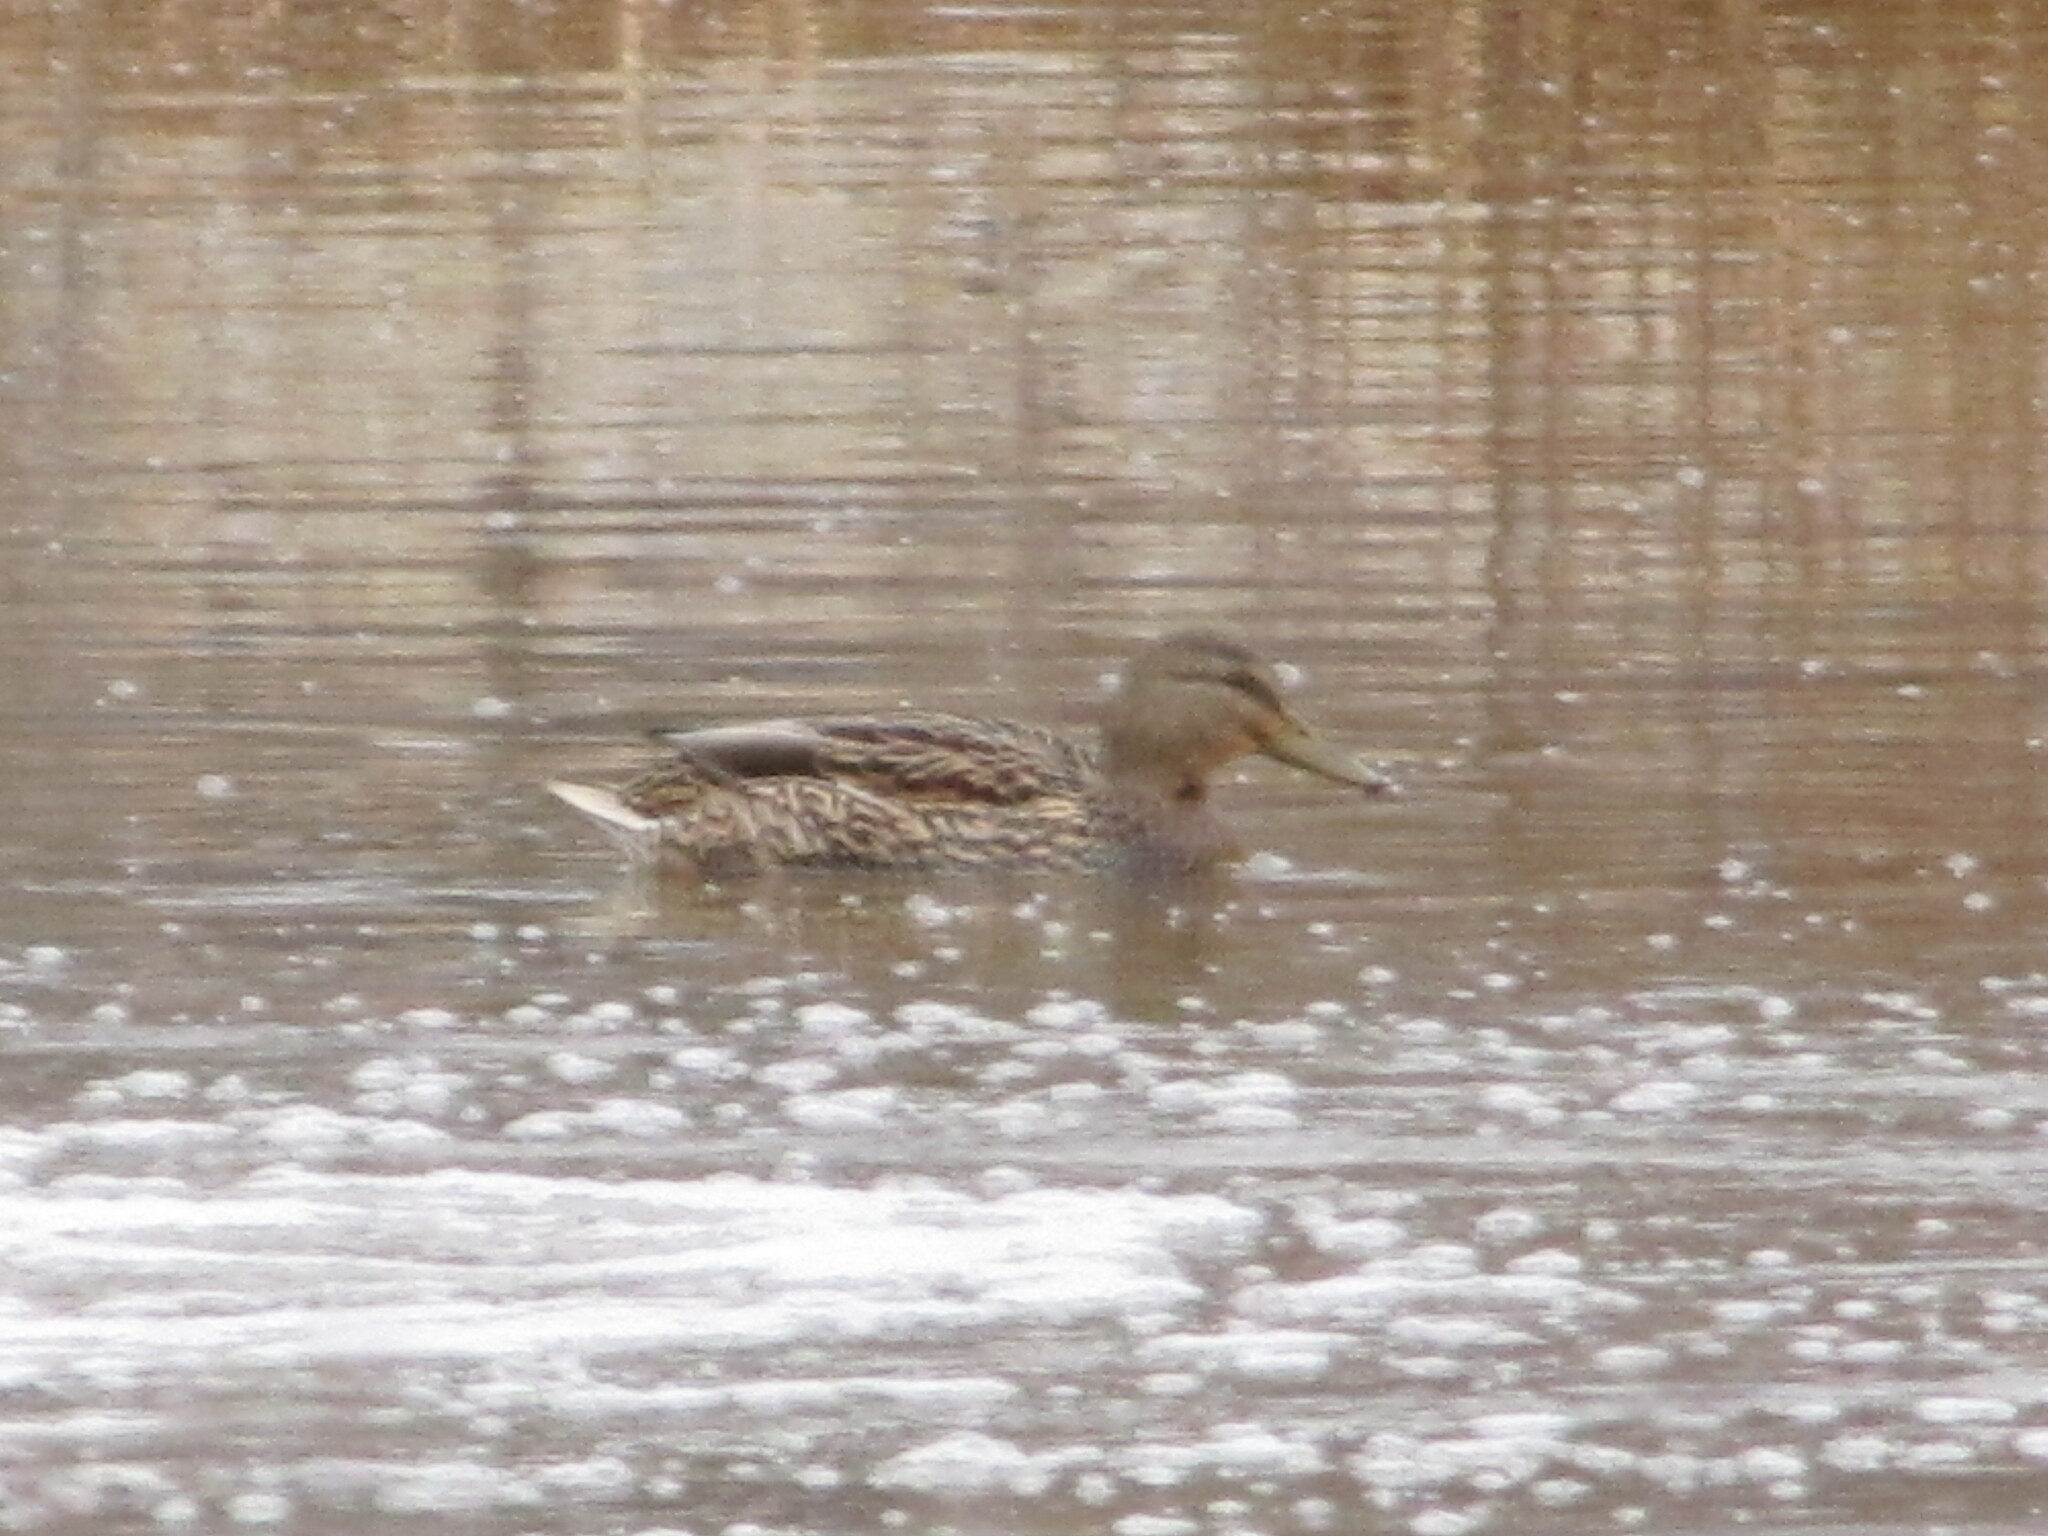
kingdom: Animalia
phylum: Chordata
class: Aves
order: Anseriformes
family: Anatidae
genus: Anas
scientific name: Anas platyrhynchos
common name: Mallard
